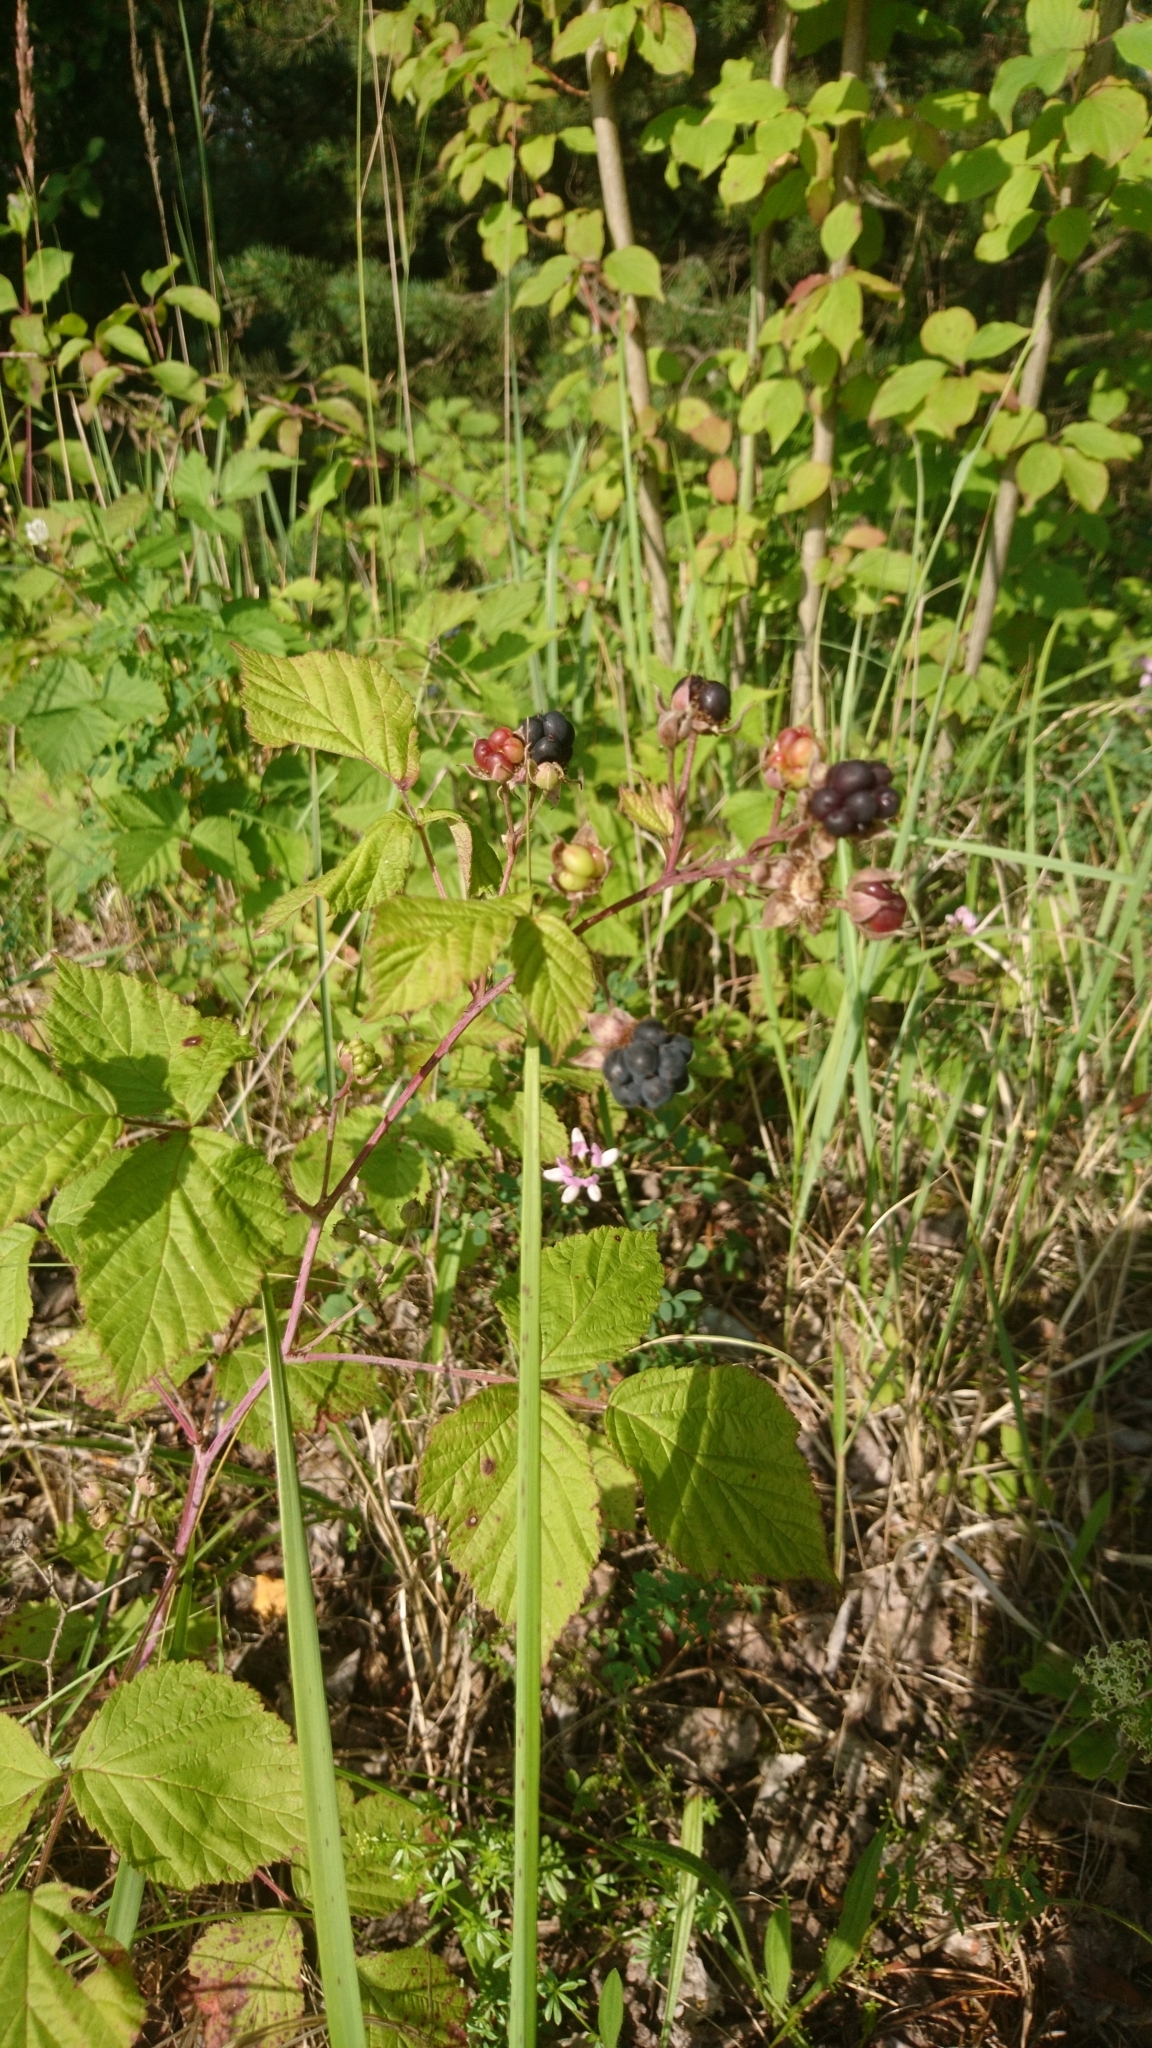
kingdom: Plantae
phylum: Tracheophyta
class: Magnoliopsida
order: Rosales
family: Rosaceae
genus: Rubus
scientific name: Rubus caesius
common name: Dewberry
